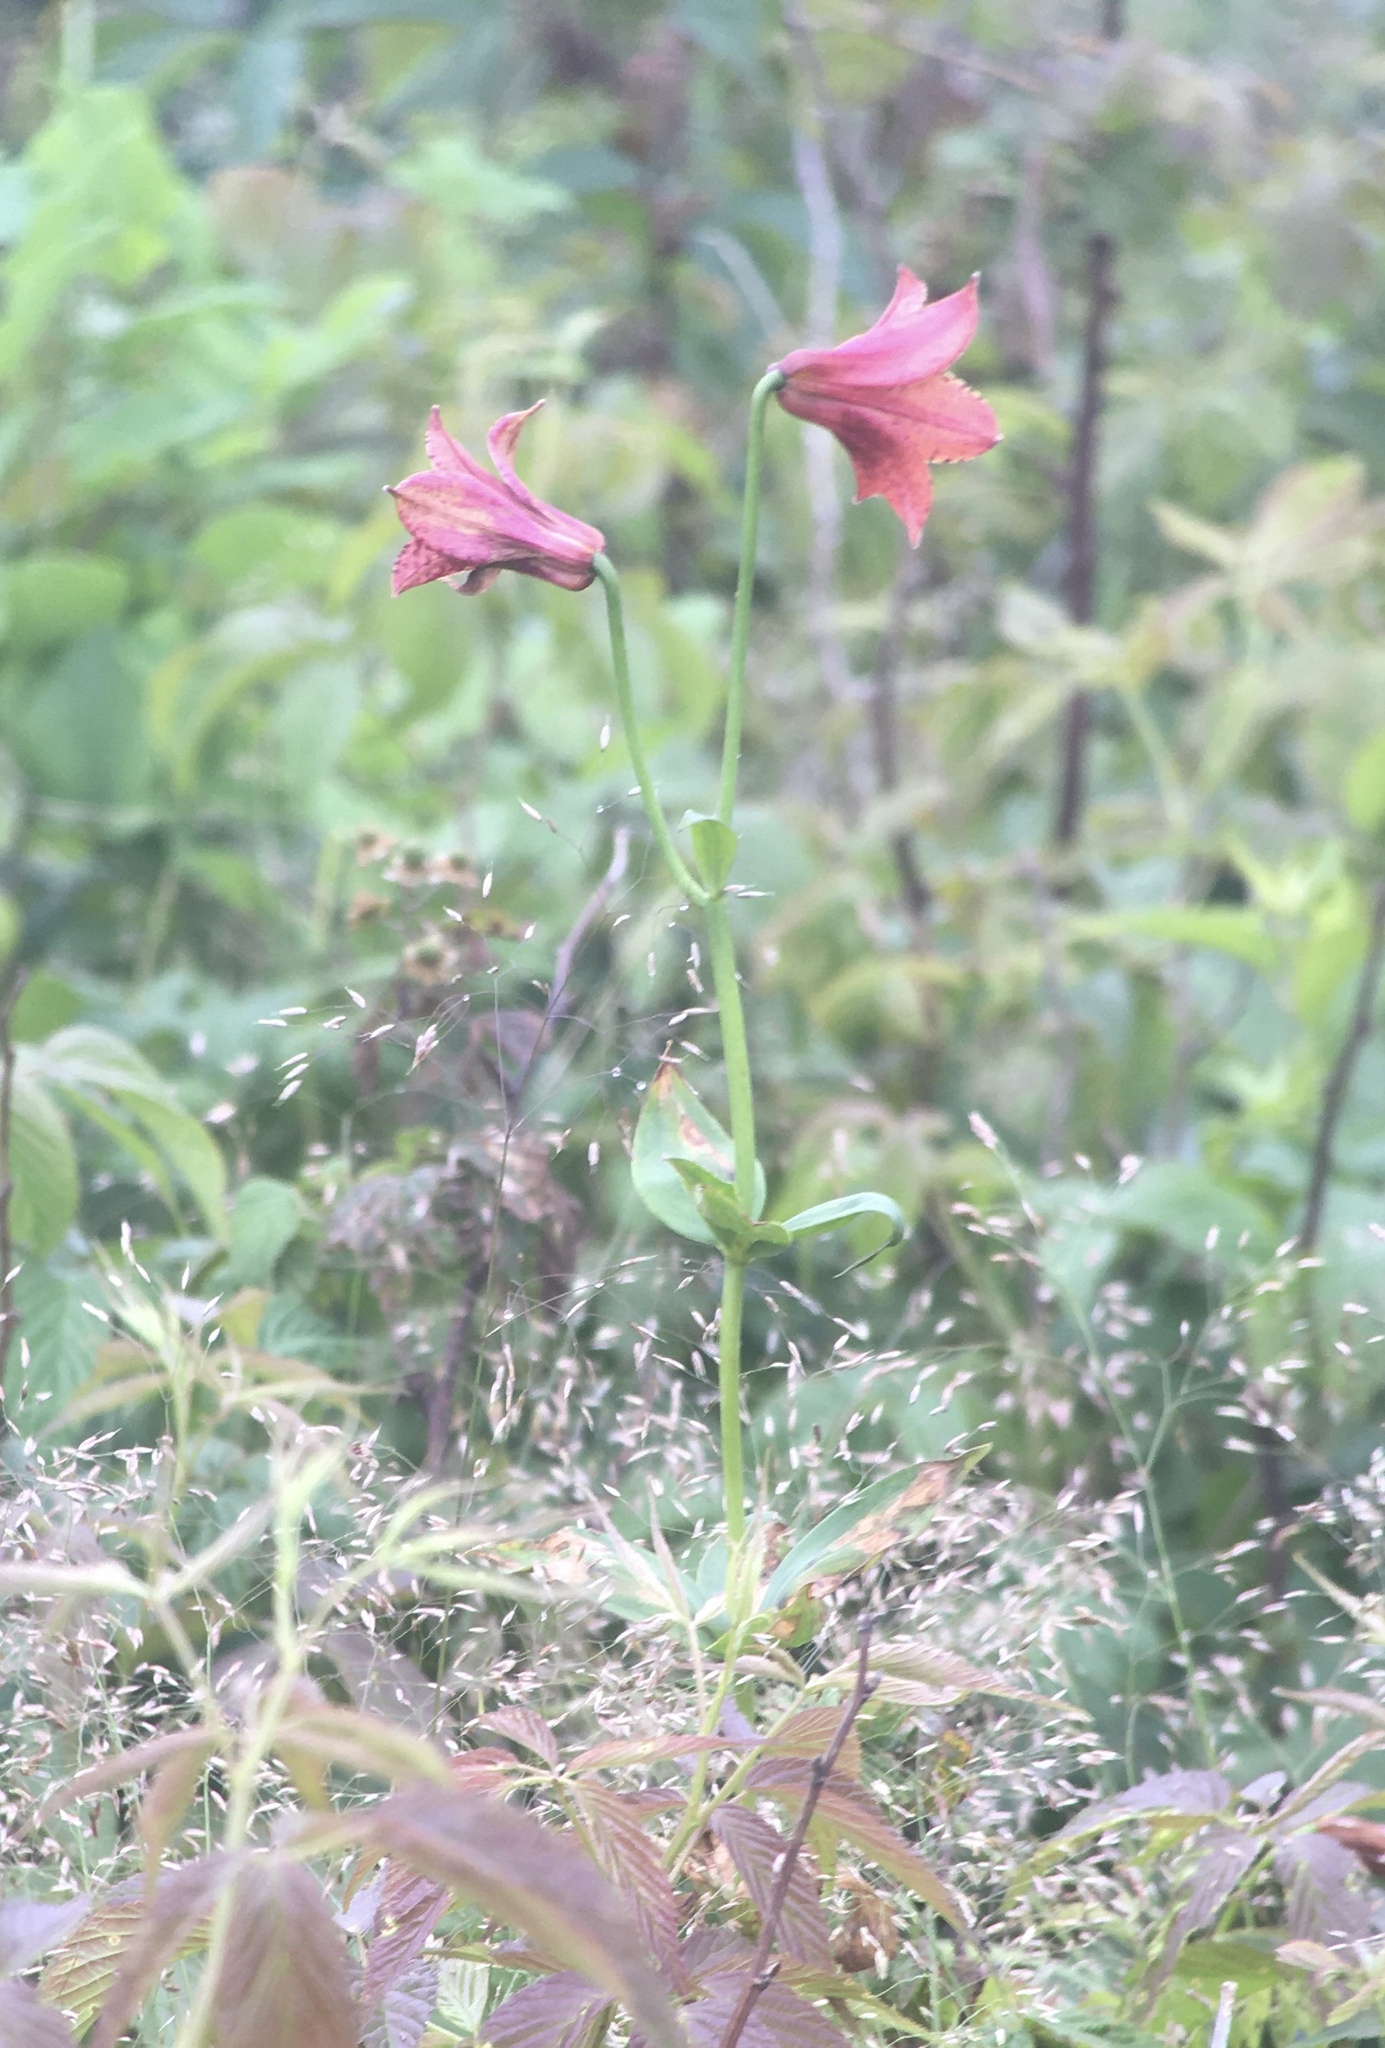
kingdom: Plantae
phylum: Tracheophyta
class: Liliopsida
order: Liliales
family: Liliaceae
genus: Lilium
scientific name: Lilium grayi
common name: Gray's lily
